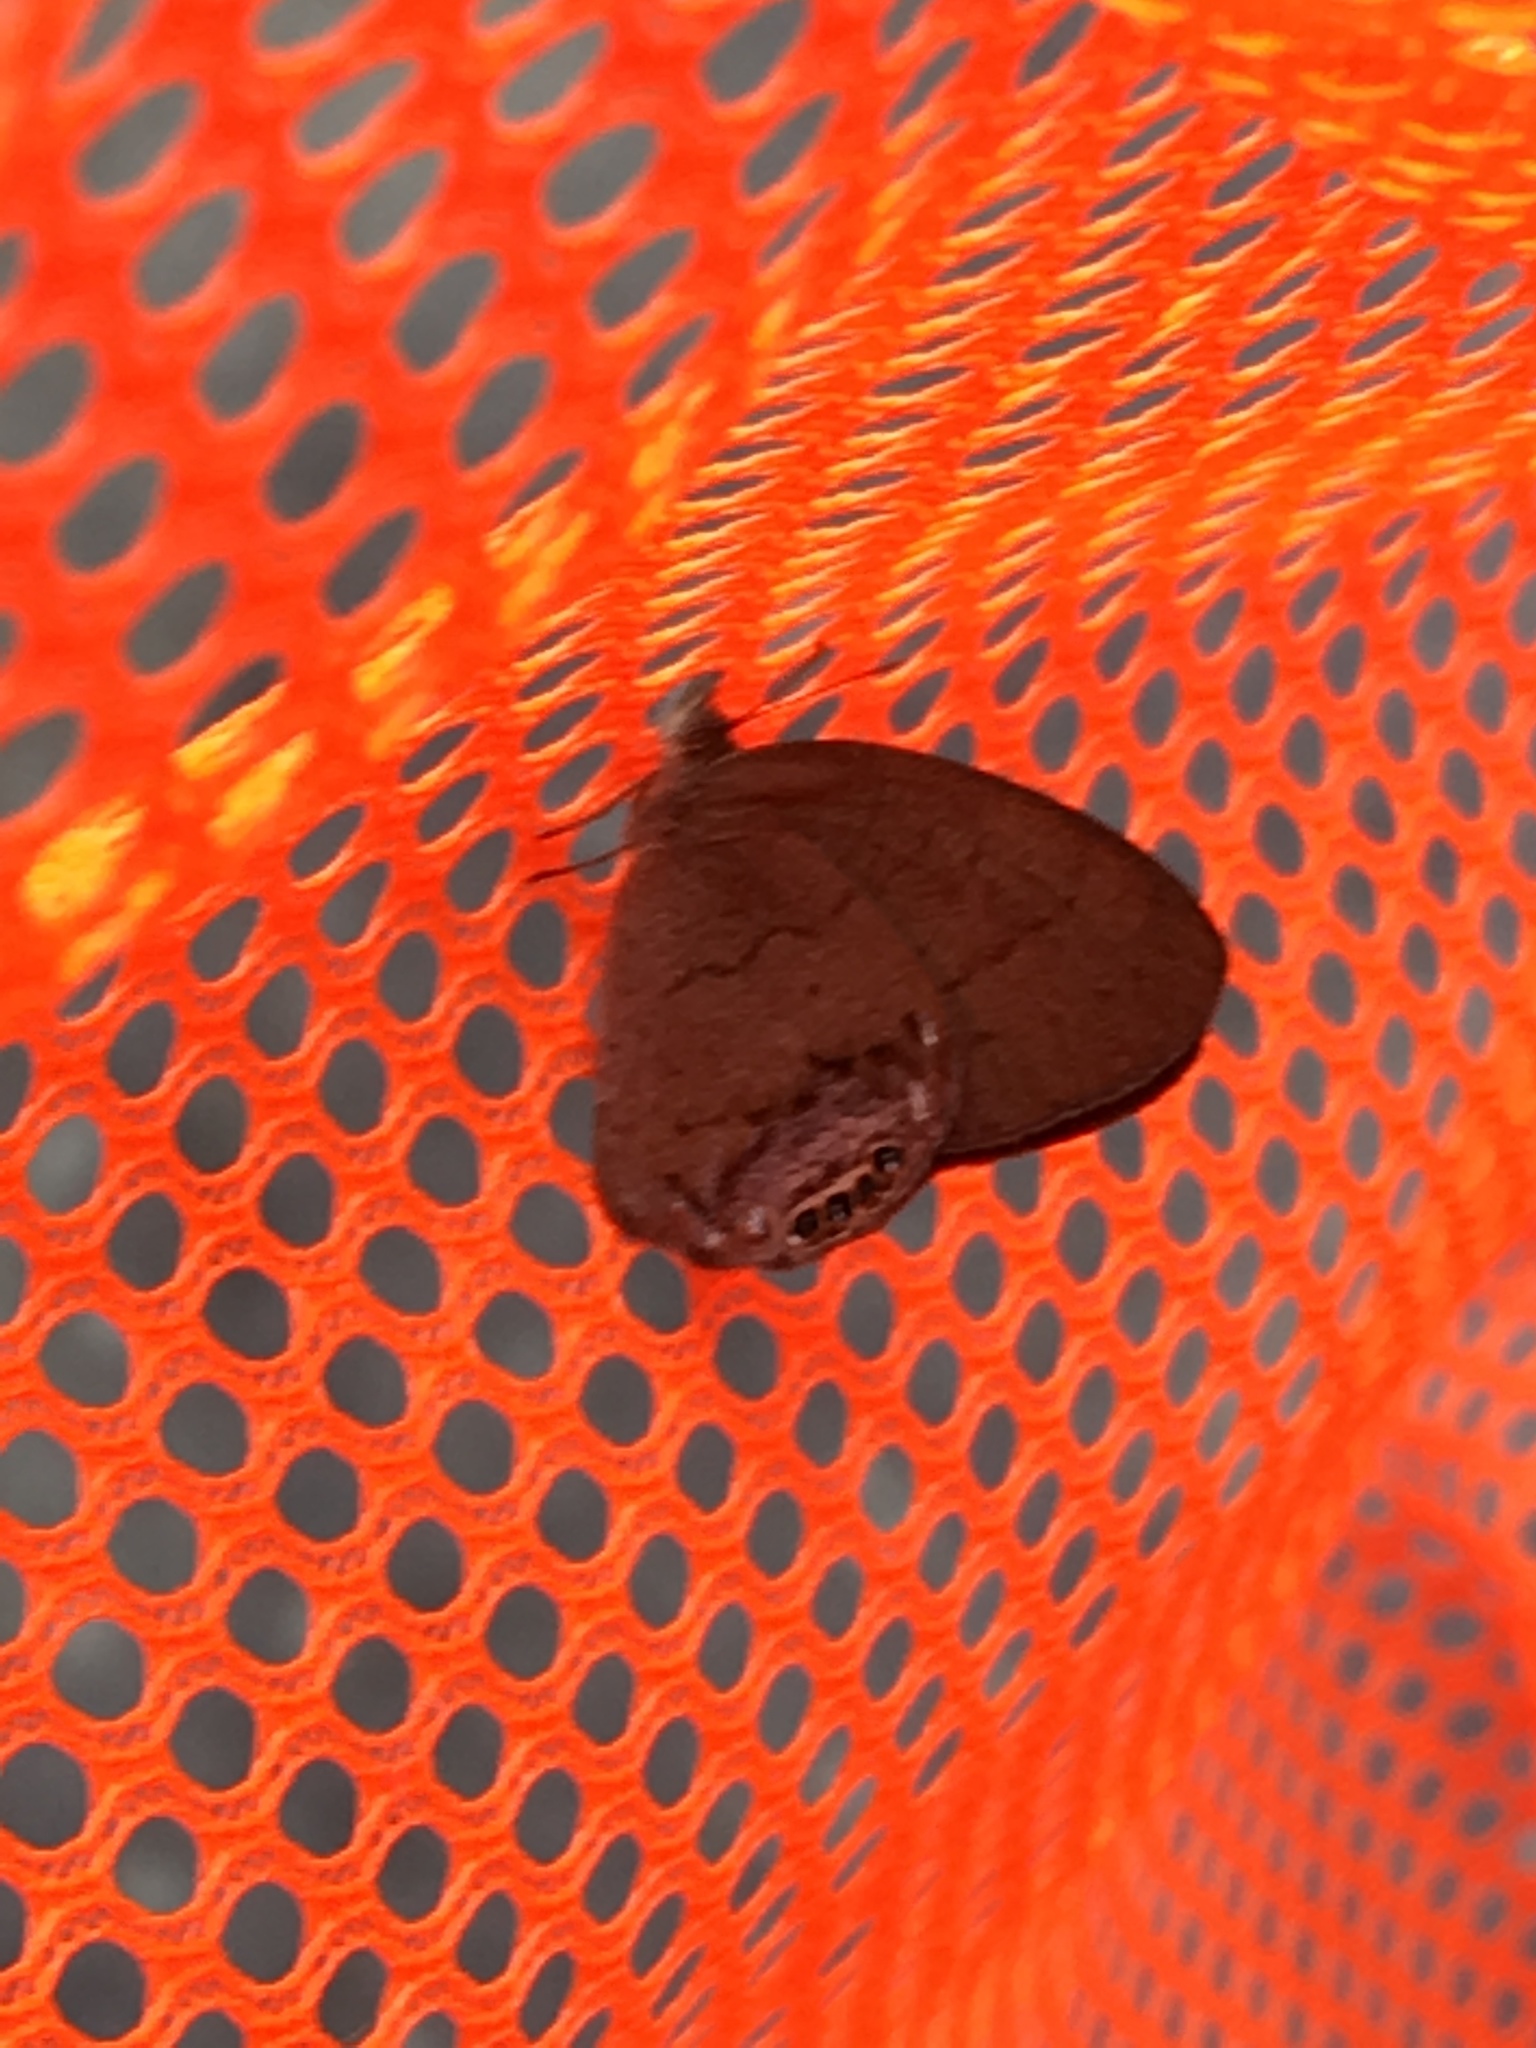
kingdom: Animalia
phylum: Arthropoda
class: Insecta
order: Lepidoptera
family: Nymphalidae
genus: Euptychia
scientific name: Euptychia cornelius
